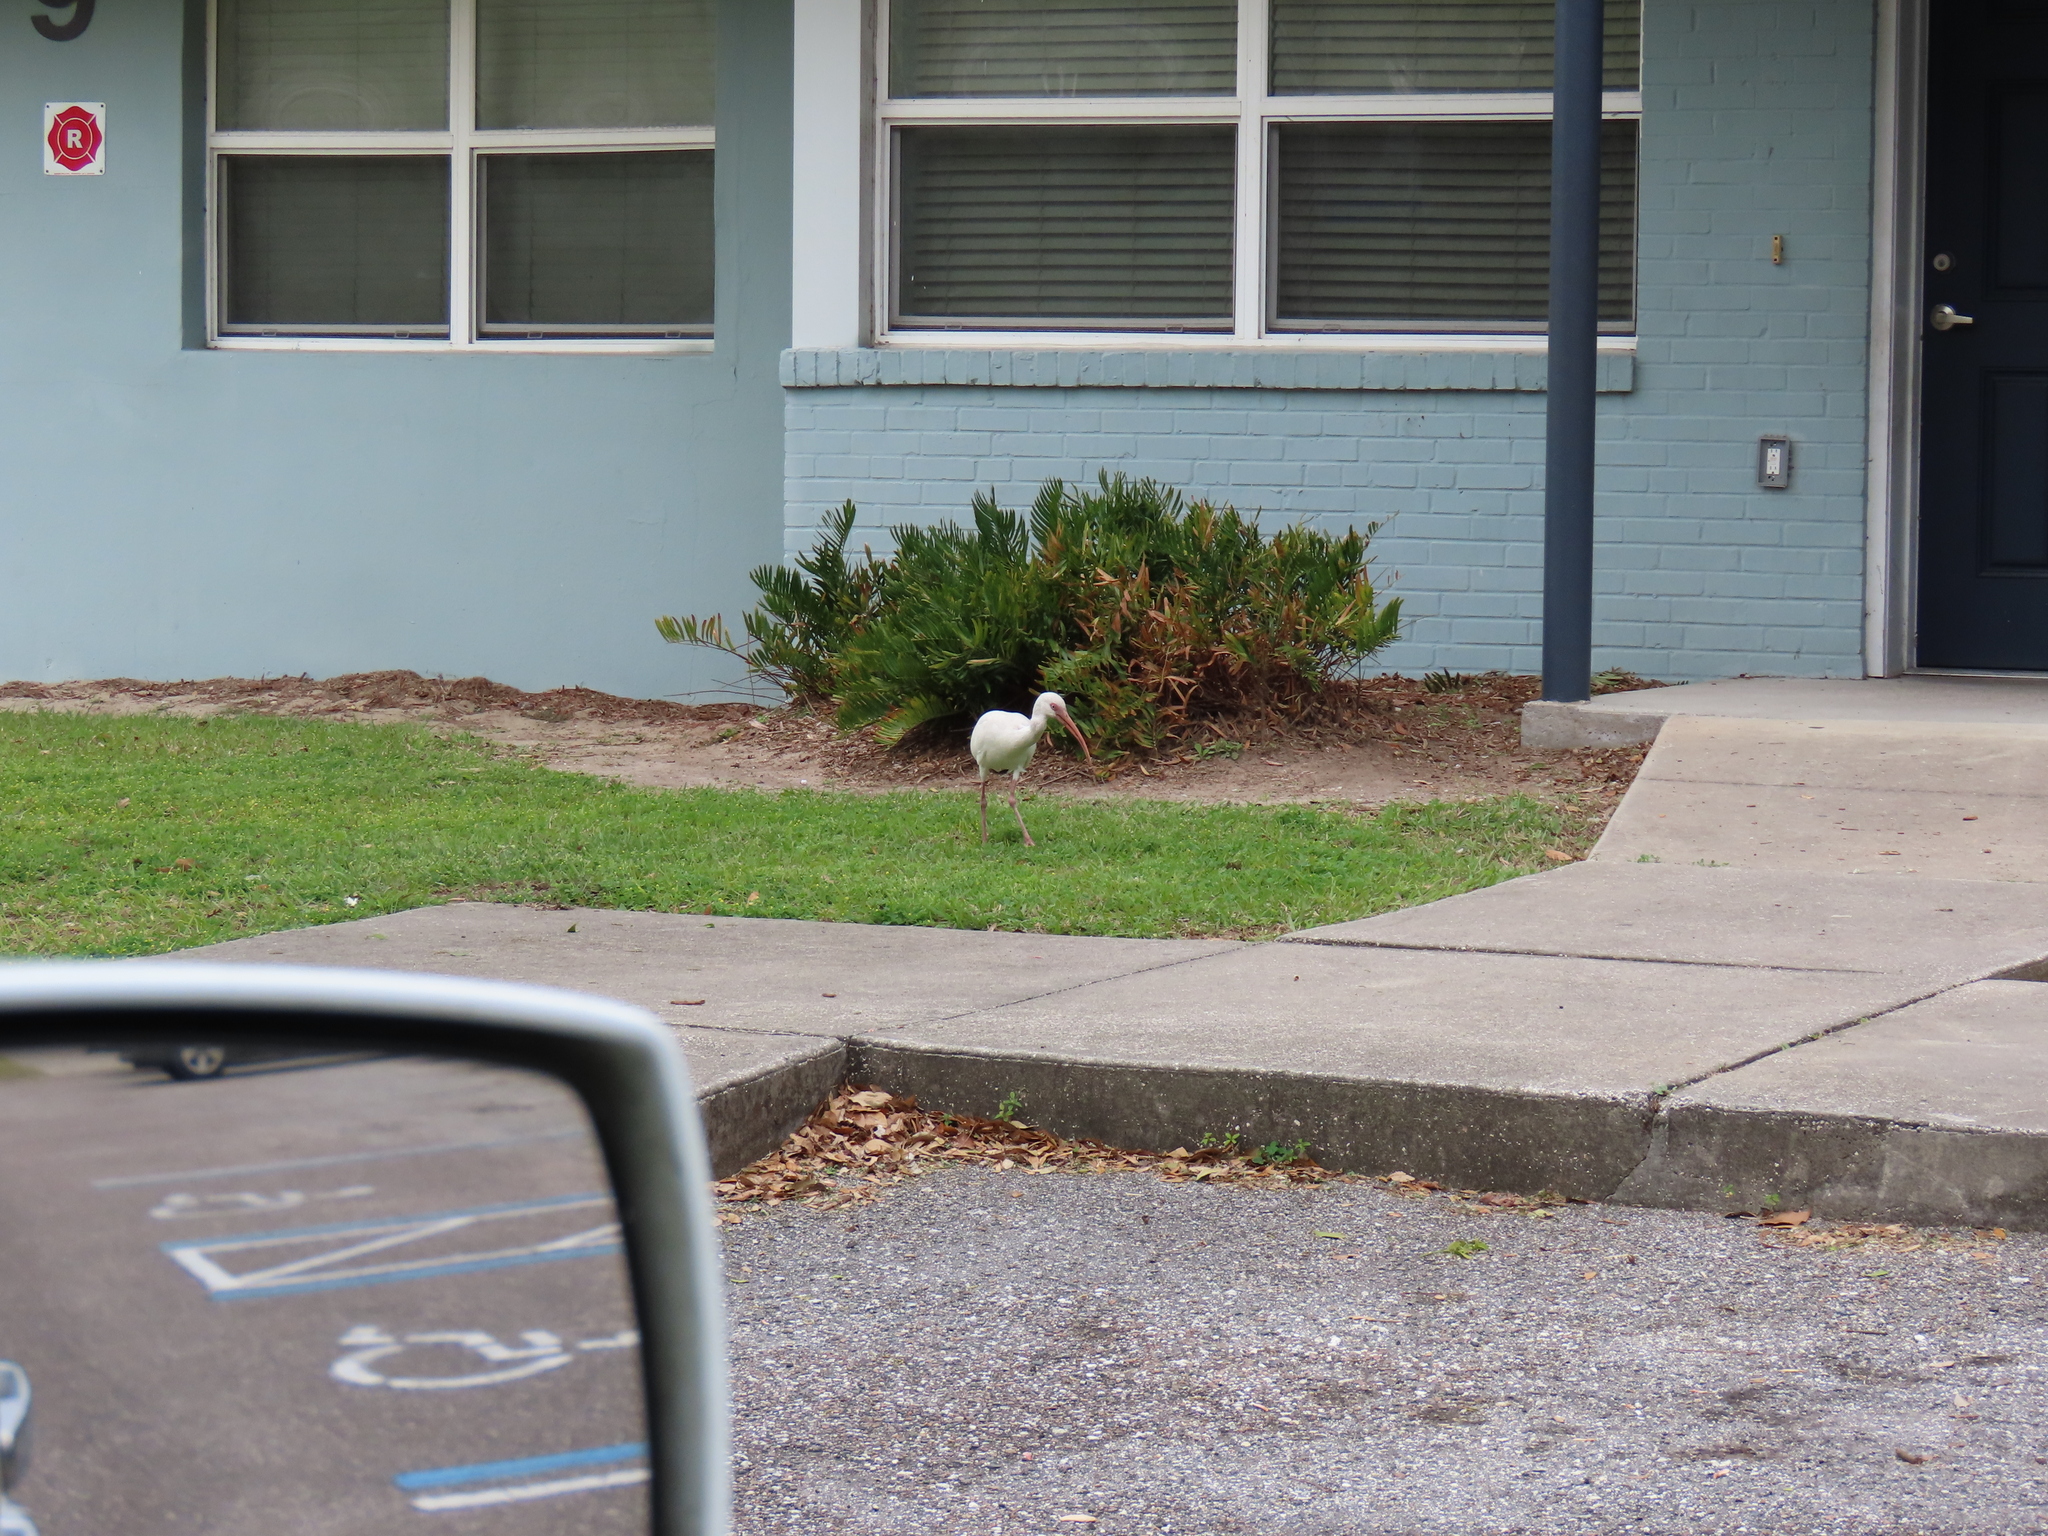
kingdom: Animalia
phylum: Chordata
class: Aves
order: Pelecaniformes
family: Threskiornithidae
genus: Eudocimus
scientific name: Eudocimus albus
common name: White ibis
